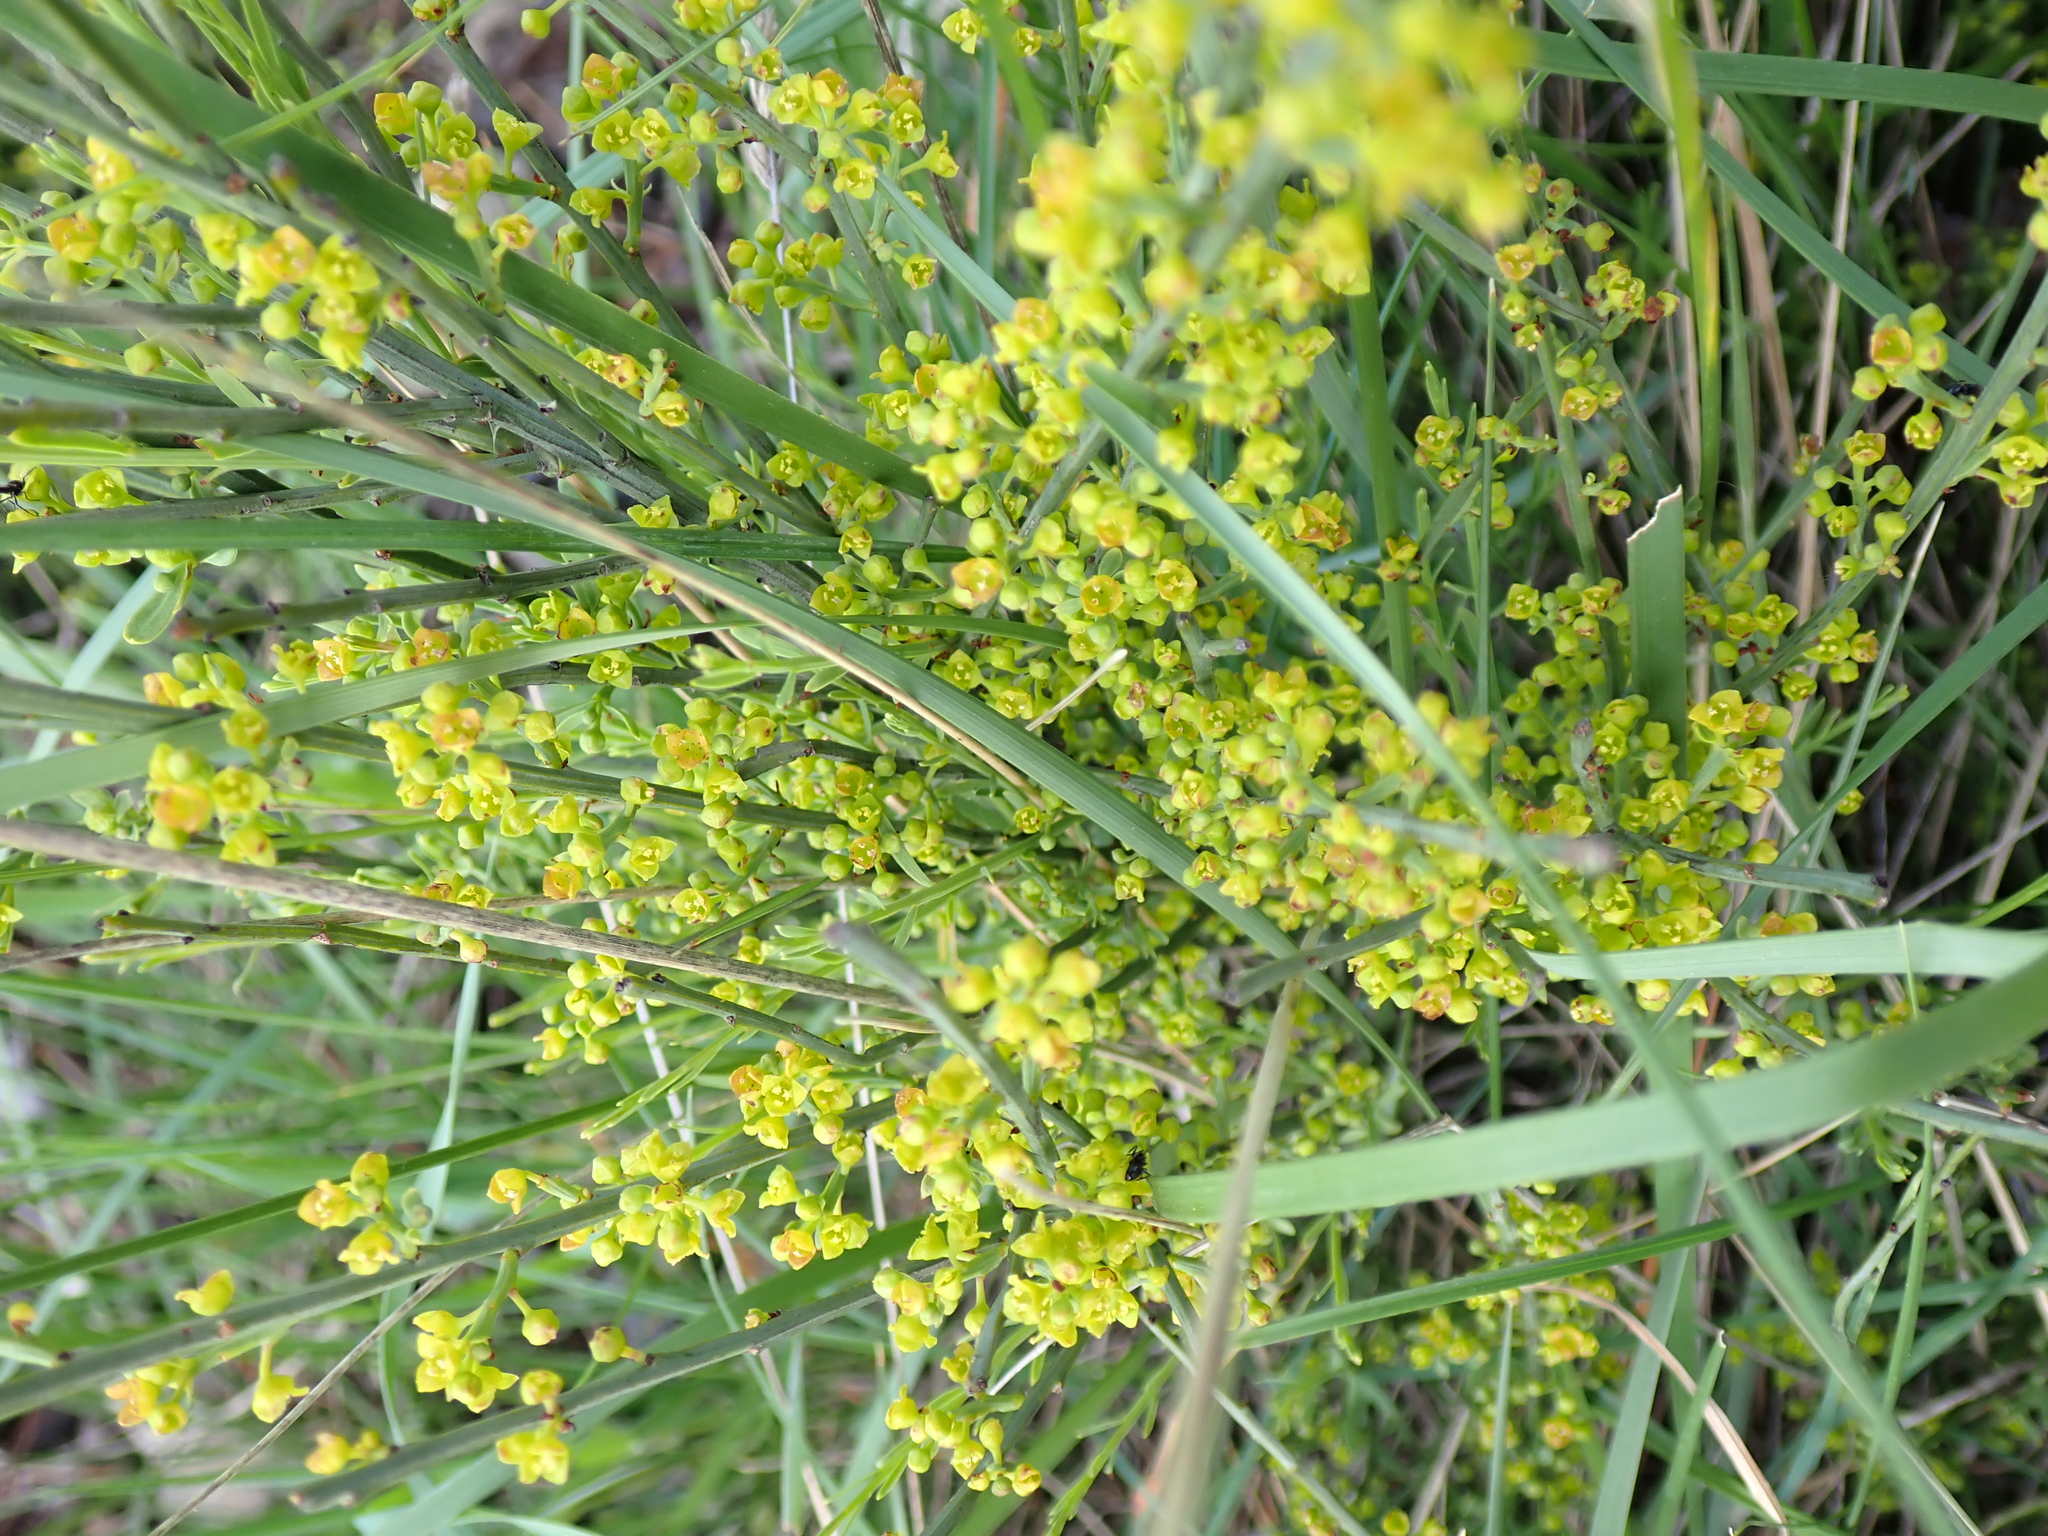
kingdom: Plantae
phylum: Tracheophyta
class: Magnoliopsida
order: Santalales
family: Santalaceae
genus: Osyris
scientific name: Osyris alba
